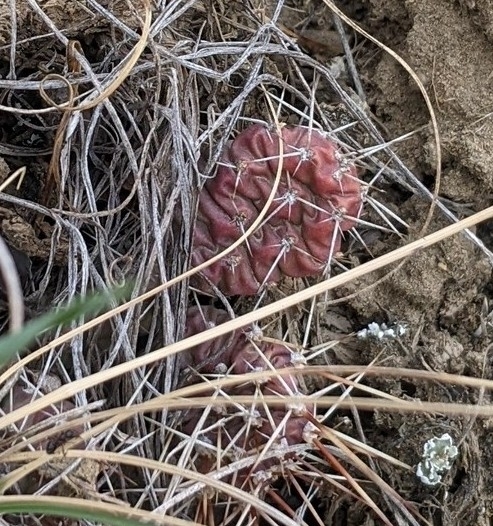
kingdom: Plantae
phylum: Tracheophyta
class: Magnoliopsida
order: Caryophyllales
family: Cactaceae
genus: Opuntia
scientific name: Opuntia fragilis
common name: Brittle cactus
